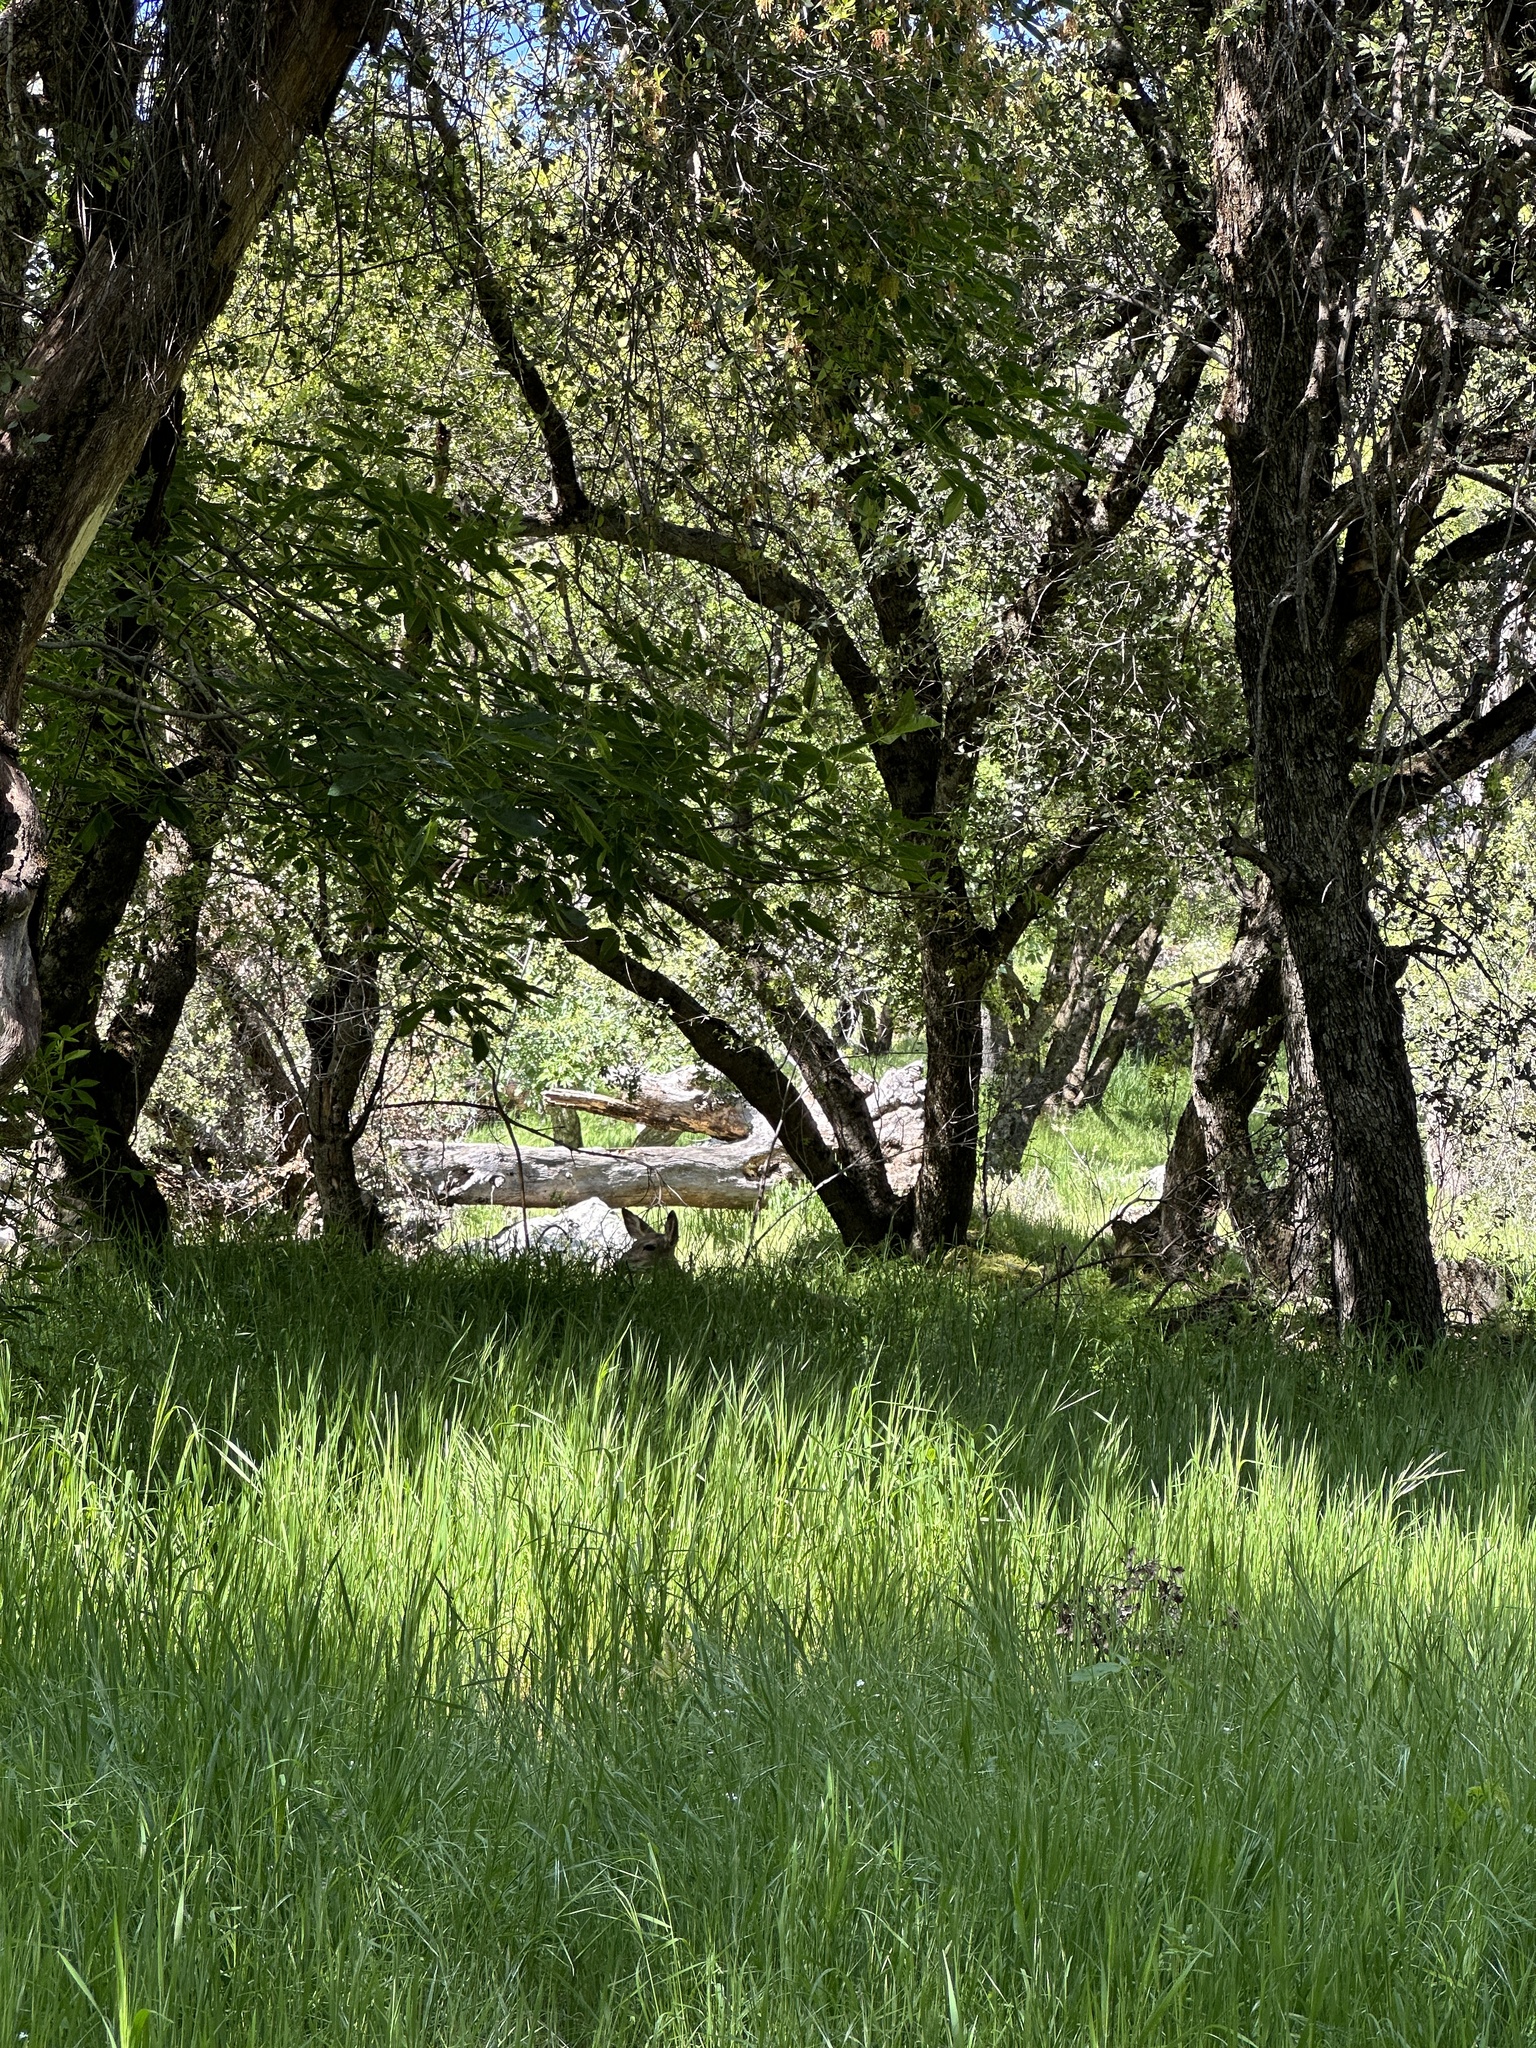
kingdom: Animalia
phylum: Chordata
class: Mammalia
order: Artiodactyla
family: Cervidae
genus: Odocoileus
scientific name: Odocoileus hemionus
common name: Mule deer
